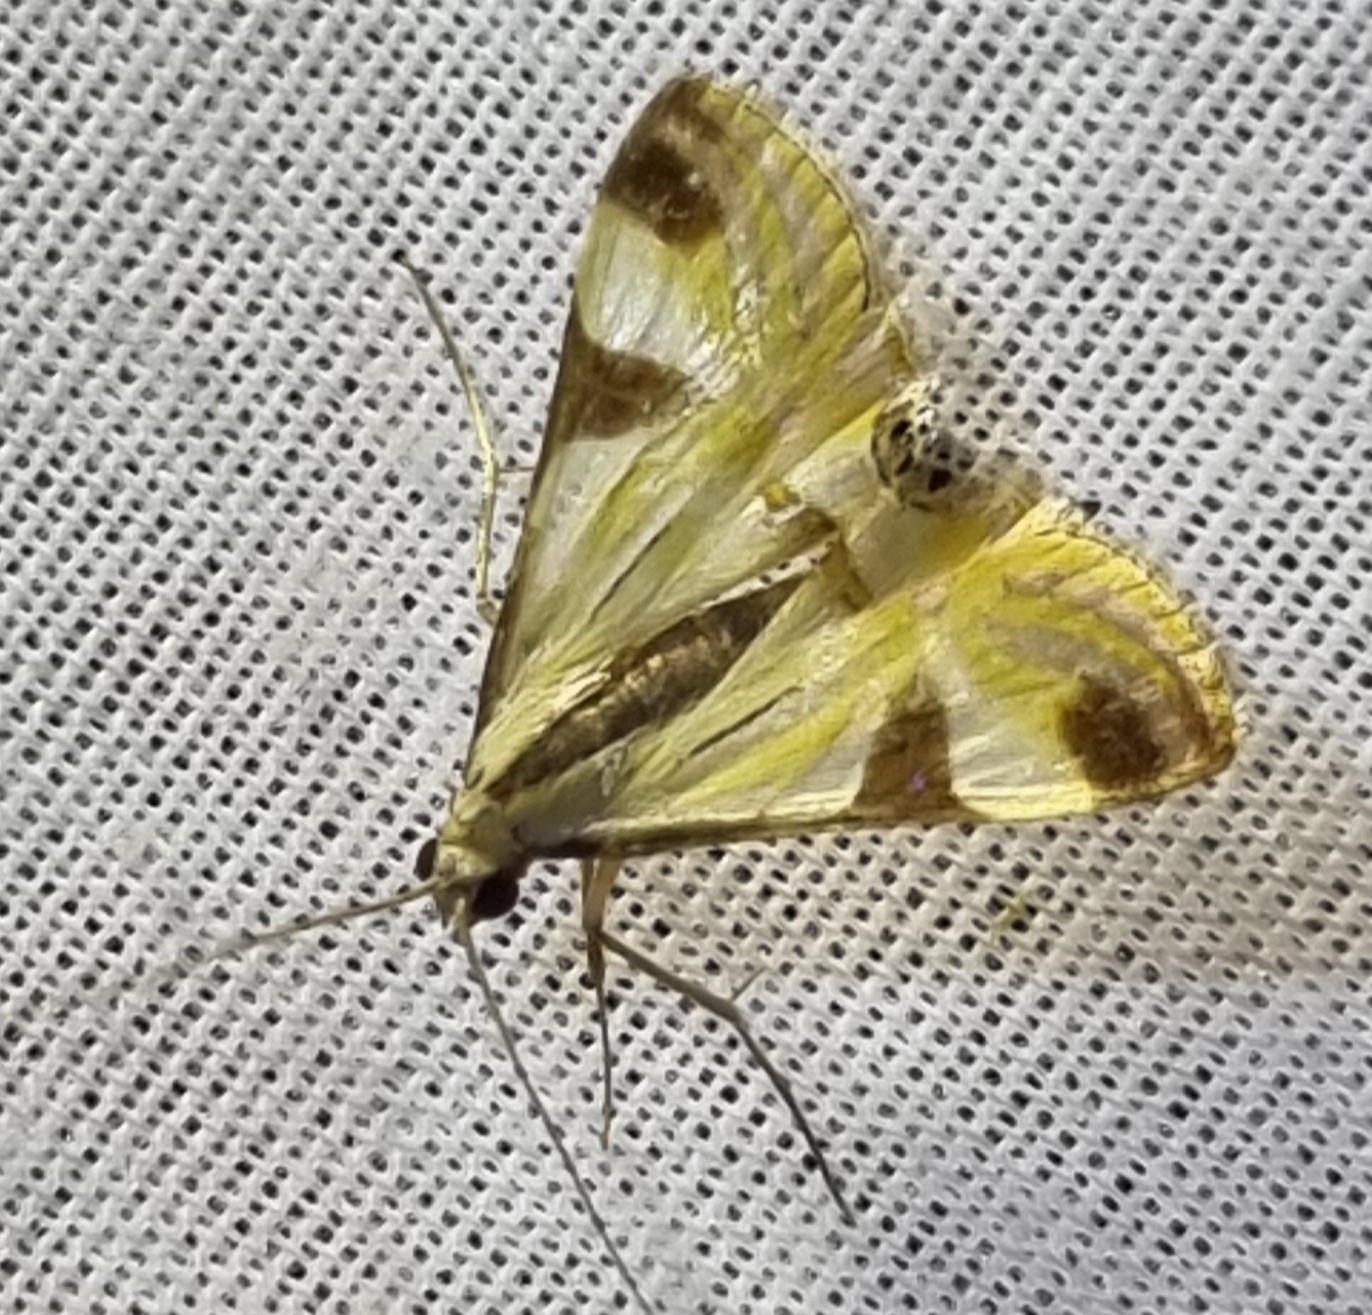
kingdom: Animalia
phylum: Arthropoda
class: Insecta
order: Lepidoptera
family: Crambidae
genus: Talanga
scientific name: Talanga tolumnialis
